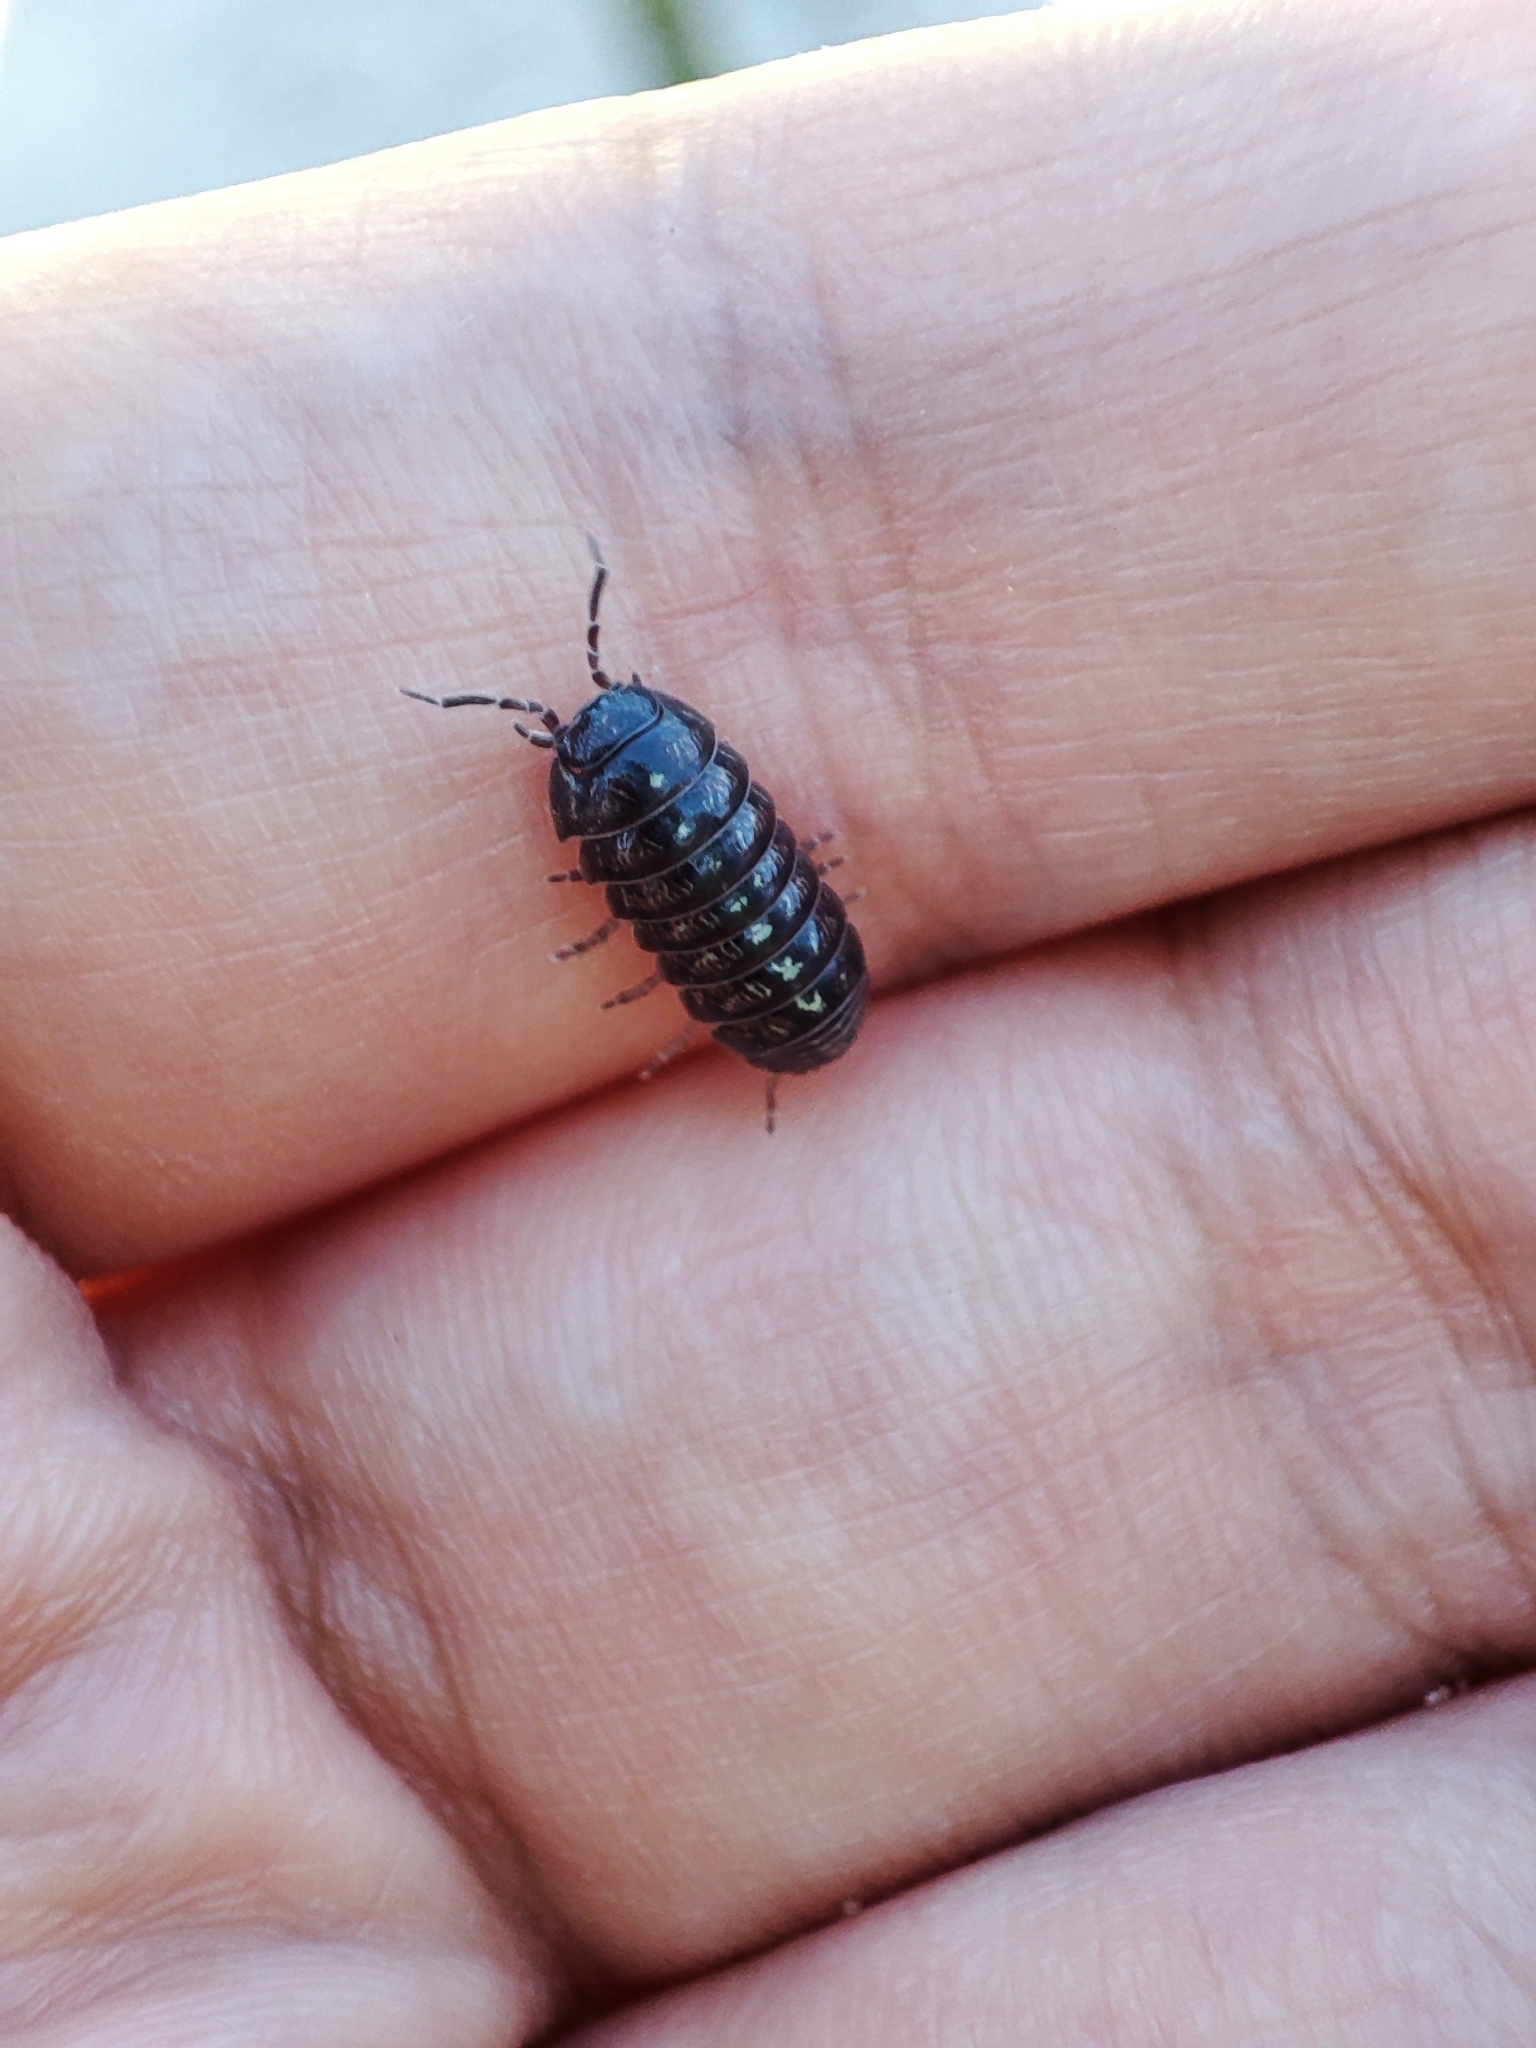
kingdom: Animalia
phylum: Arthropoda
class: Malacostraca
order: Isopoda
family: Armadillidiidae
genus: Armadillidium
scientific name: Armadillidium traiani
